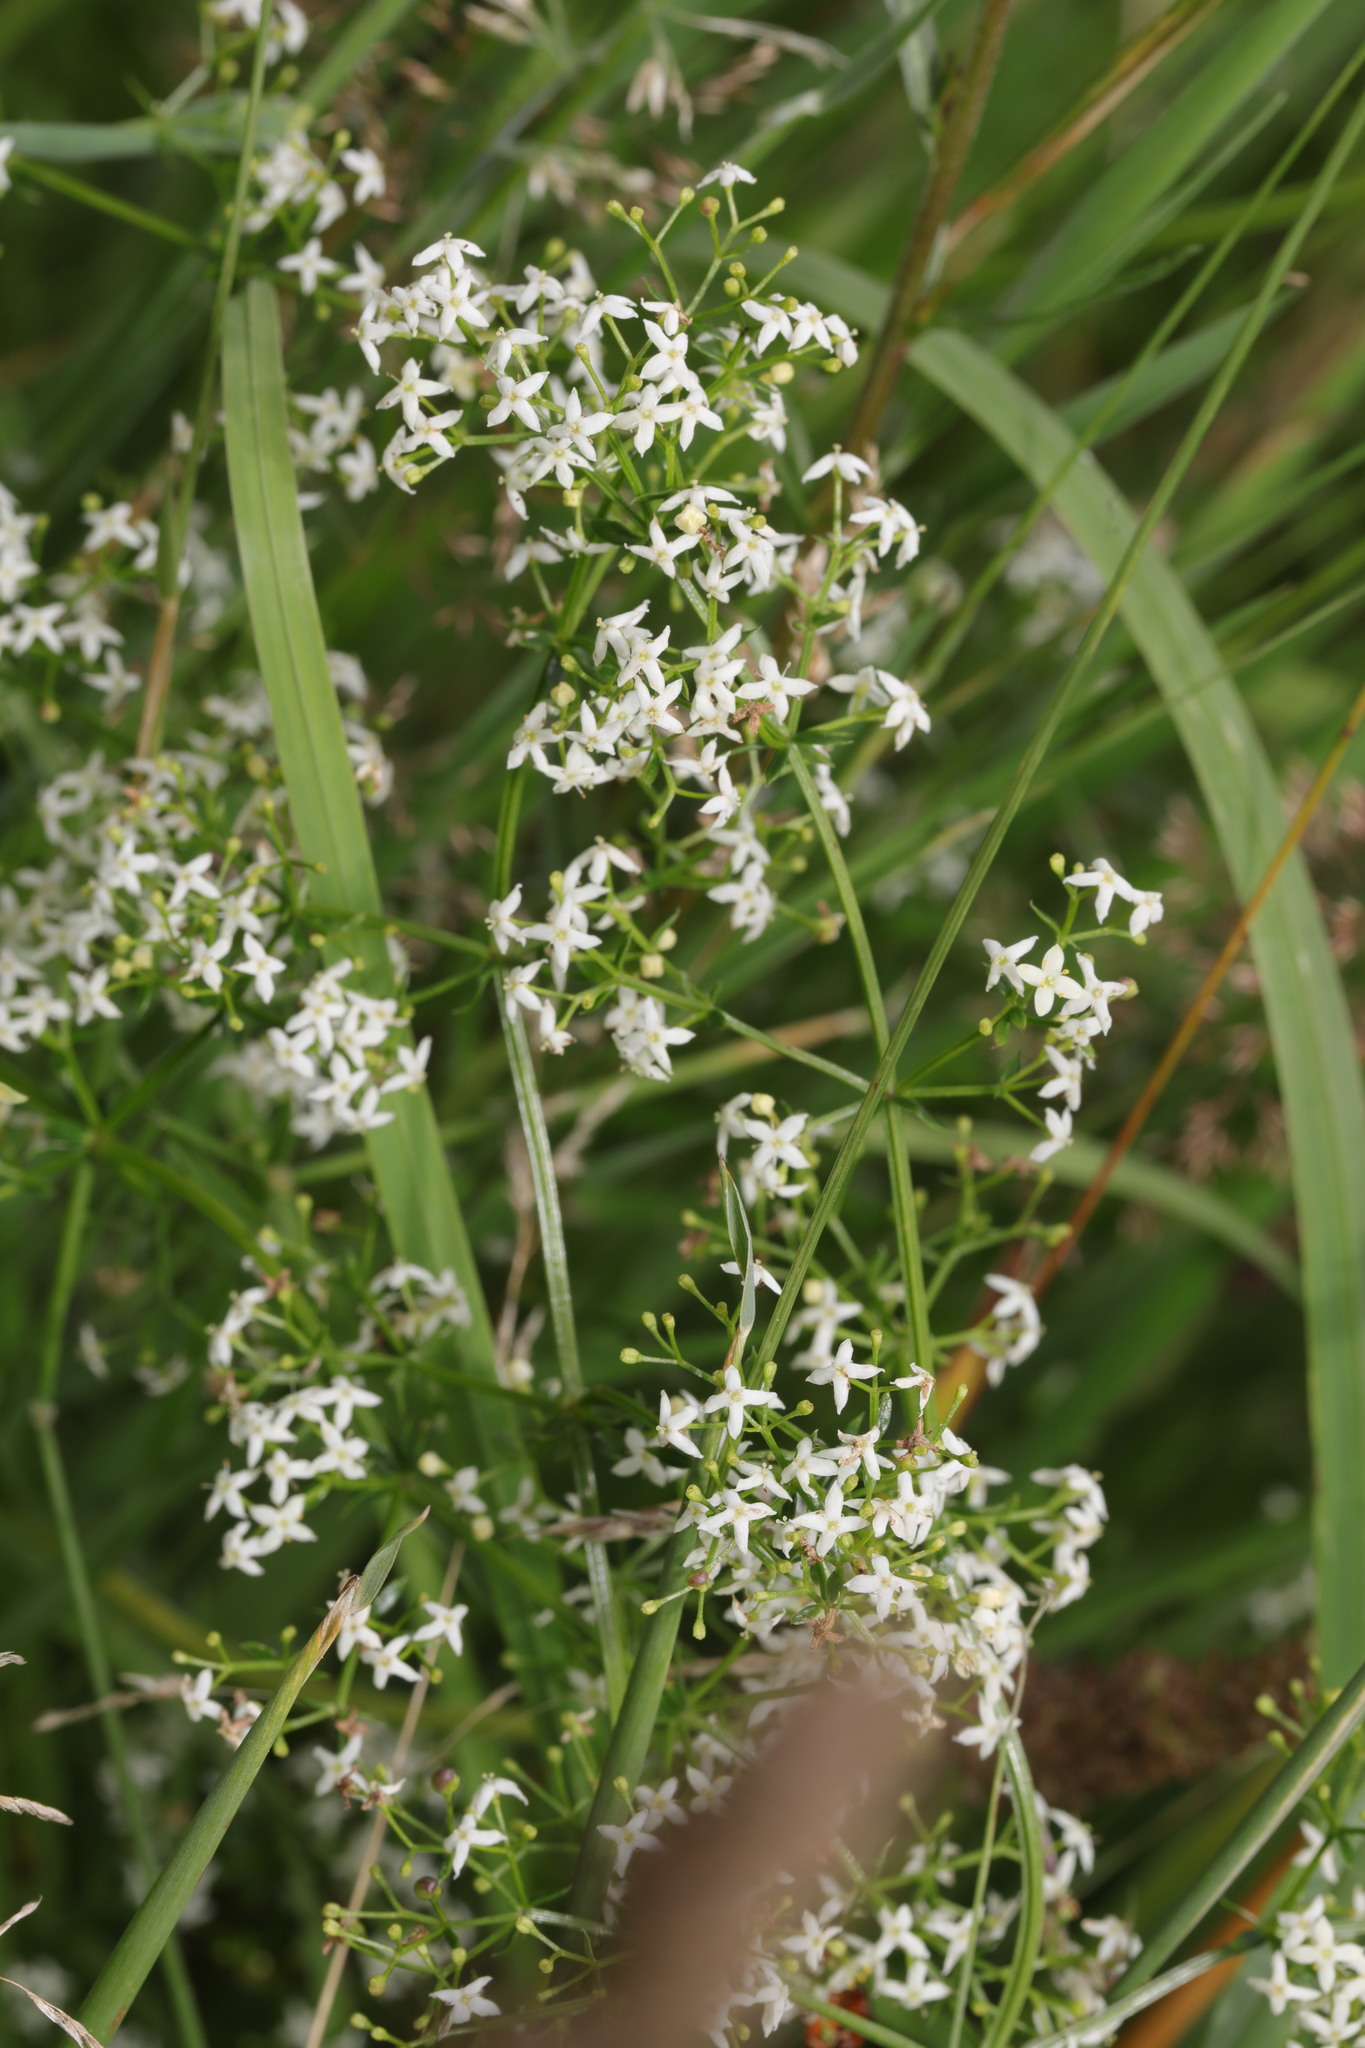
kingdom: Plantae
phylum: Tracheophyta
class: Magnoliopsida
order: Gentianales
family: Rubiaceae
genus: Galium
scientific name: Galium mollugo
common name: Hedge bedstraw
